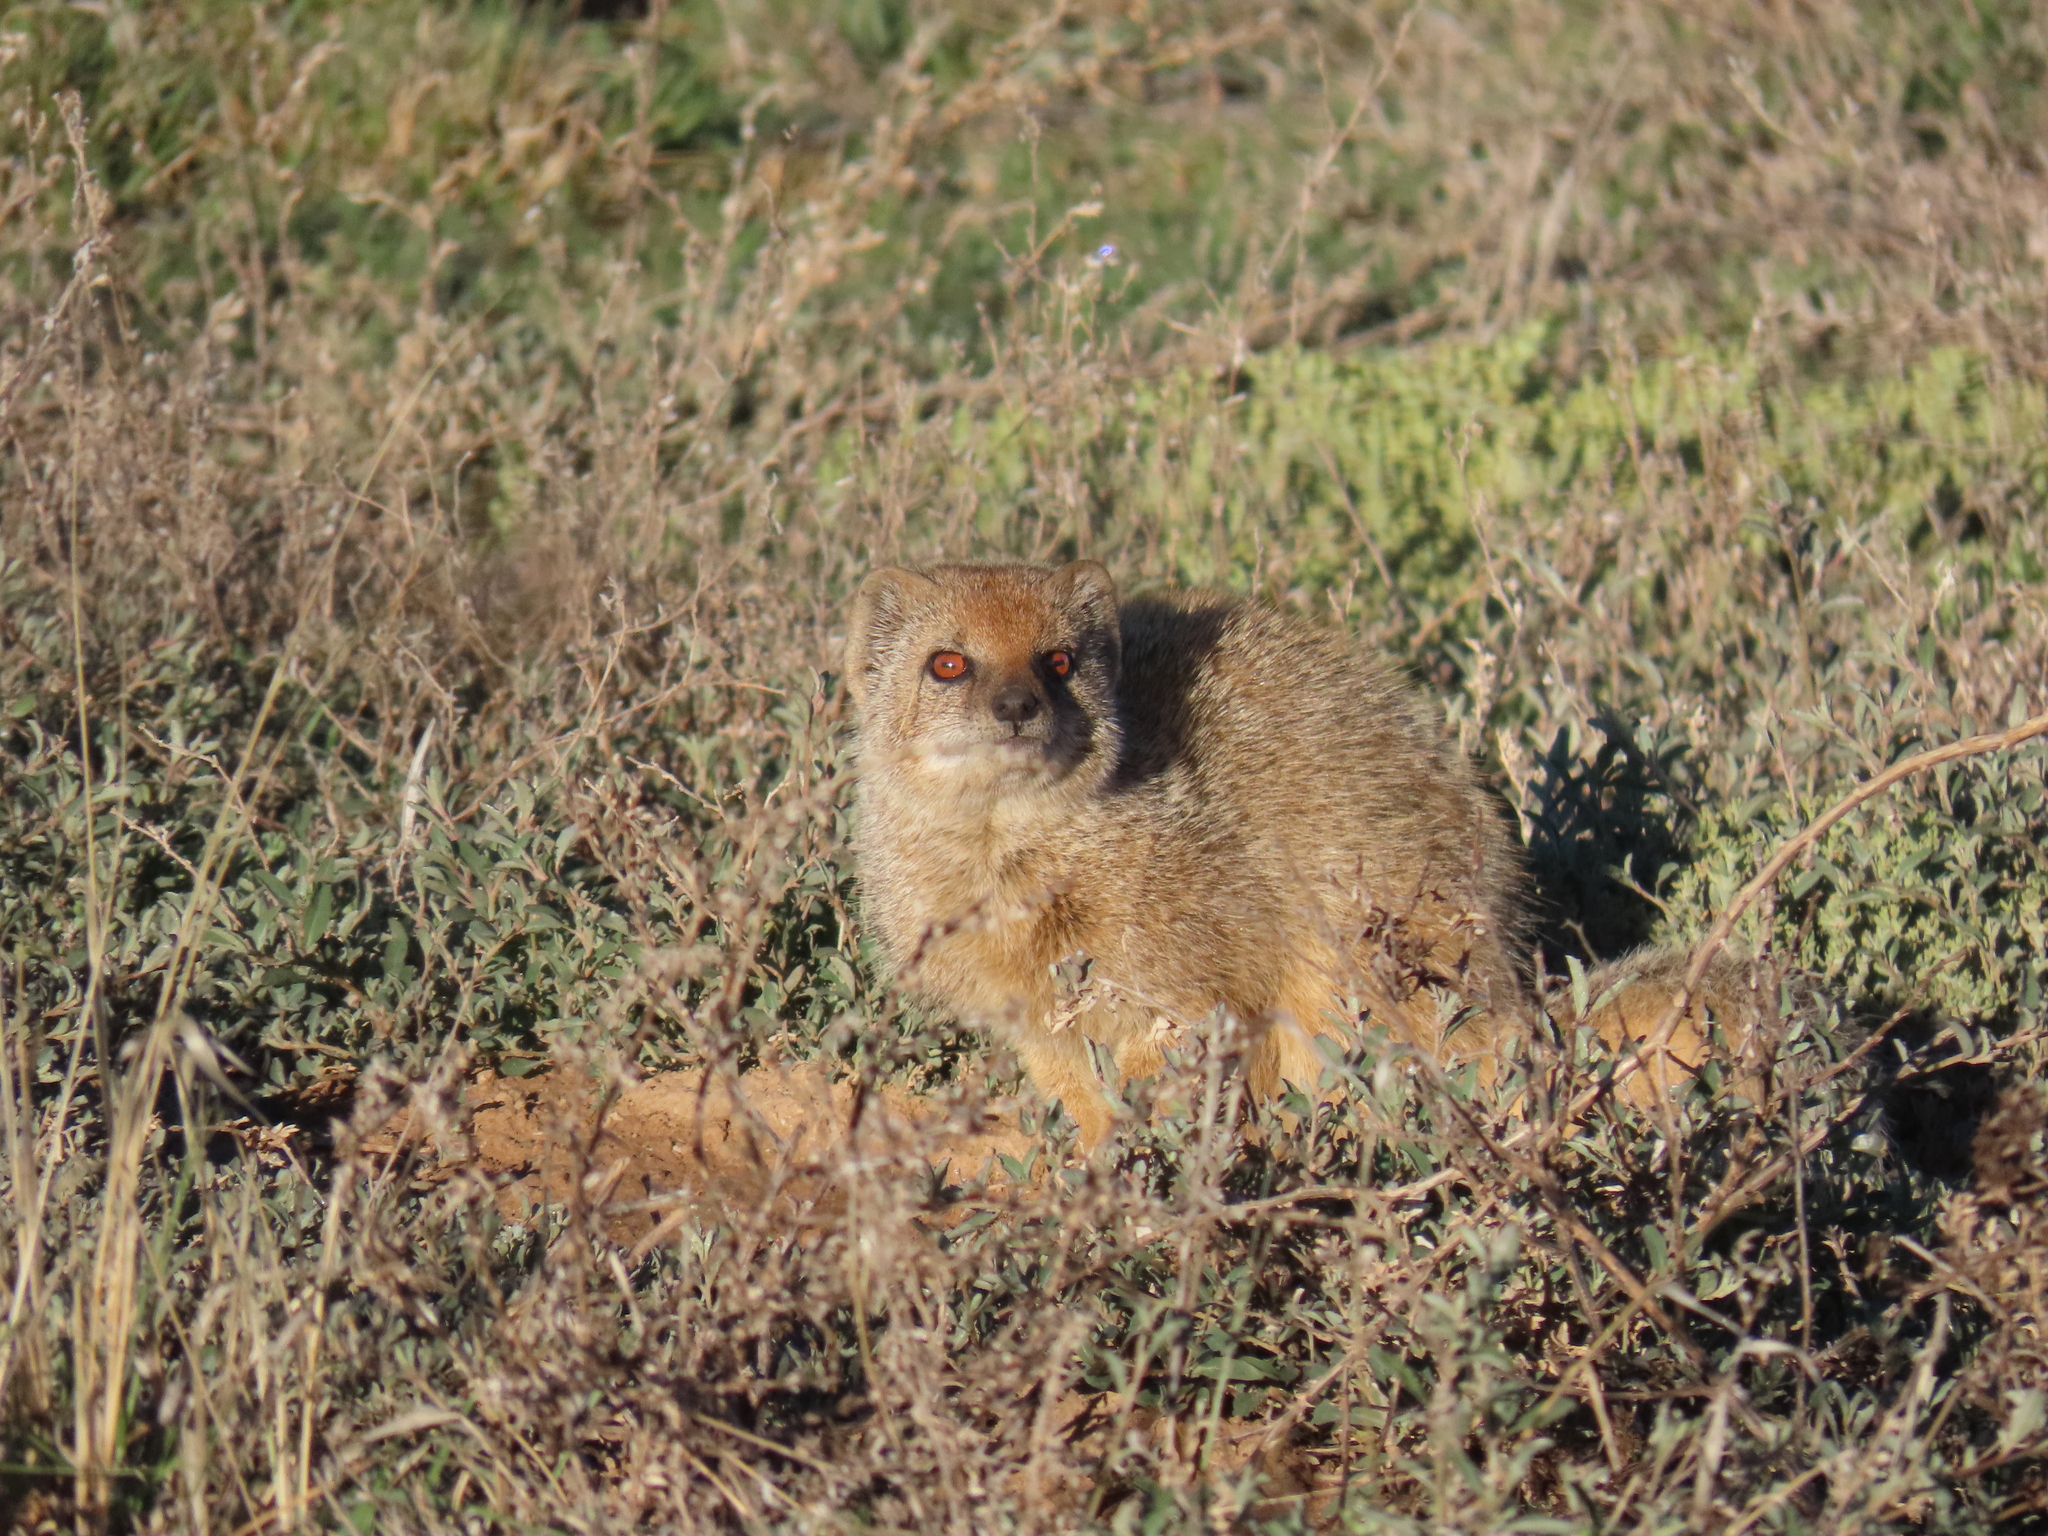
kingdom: Animalia
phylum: Chordata
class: Mammalia
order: Carnivora
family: Herpestidae
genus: Cynictis
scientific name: Cynictis penicillata
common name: Yellow mongoose
